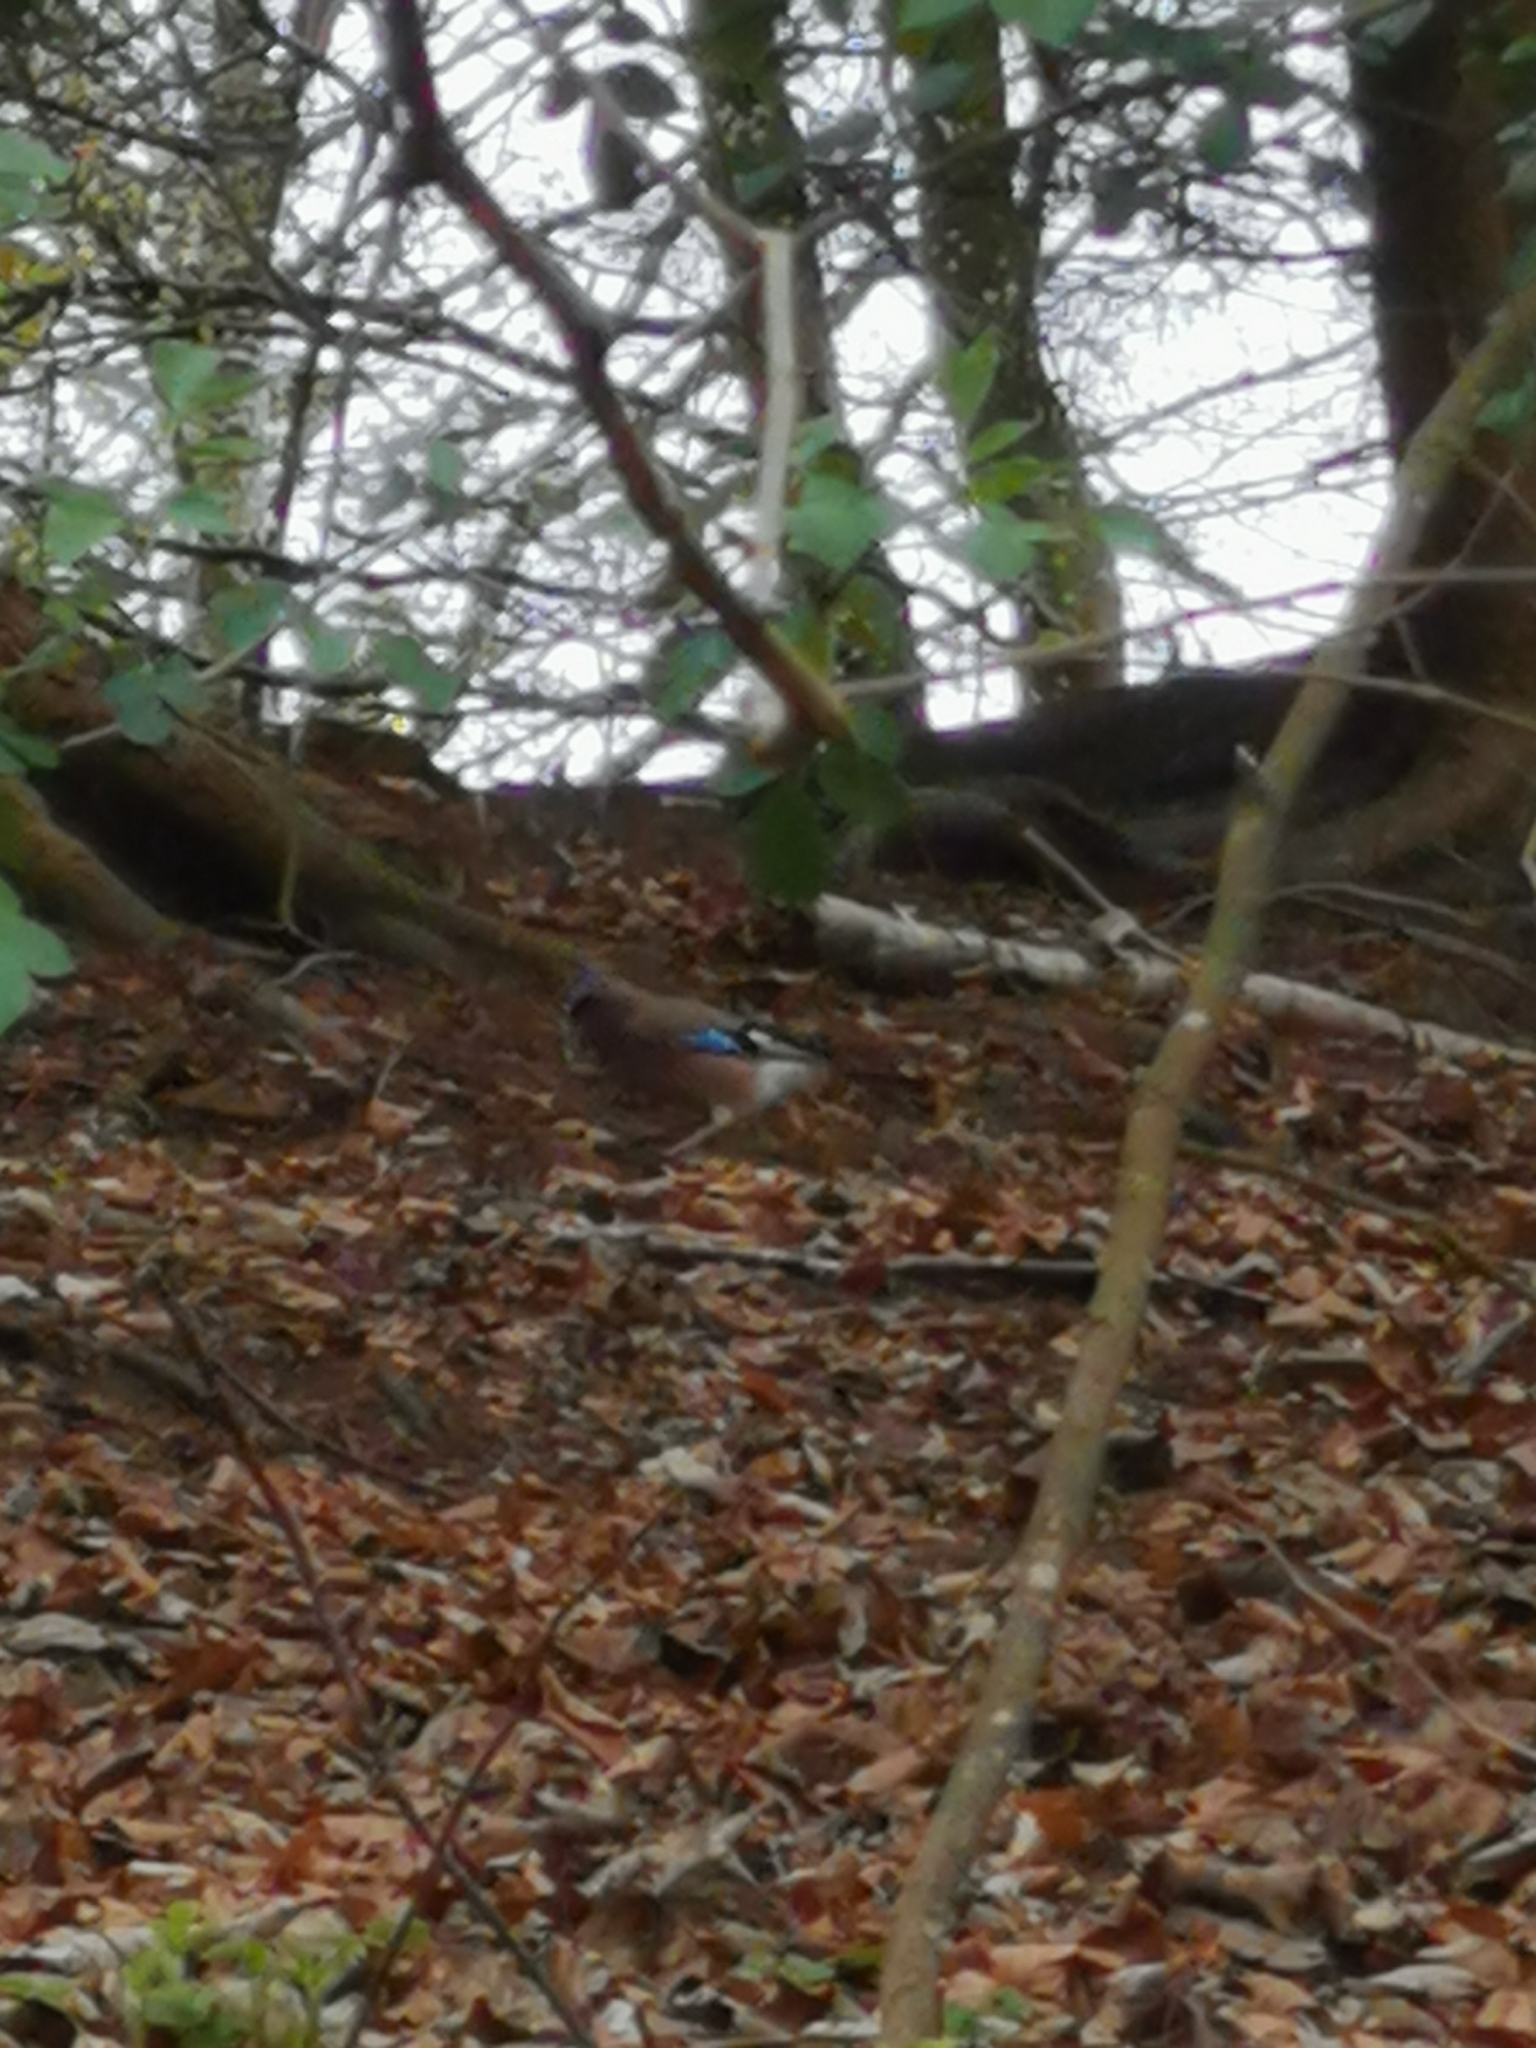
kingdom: Animalia
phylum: Chordata
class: Aves
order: Passeriformes
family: Corvidae
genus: Garrulus
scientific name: Garrulus glandarius
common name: Eurasian jay
